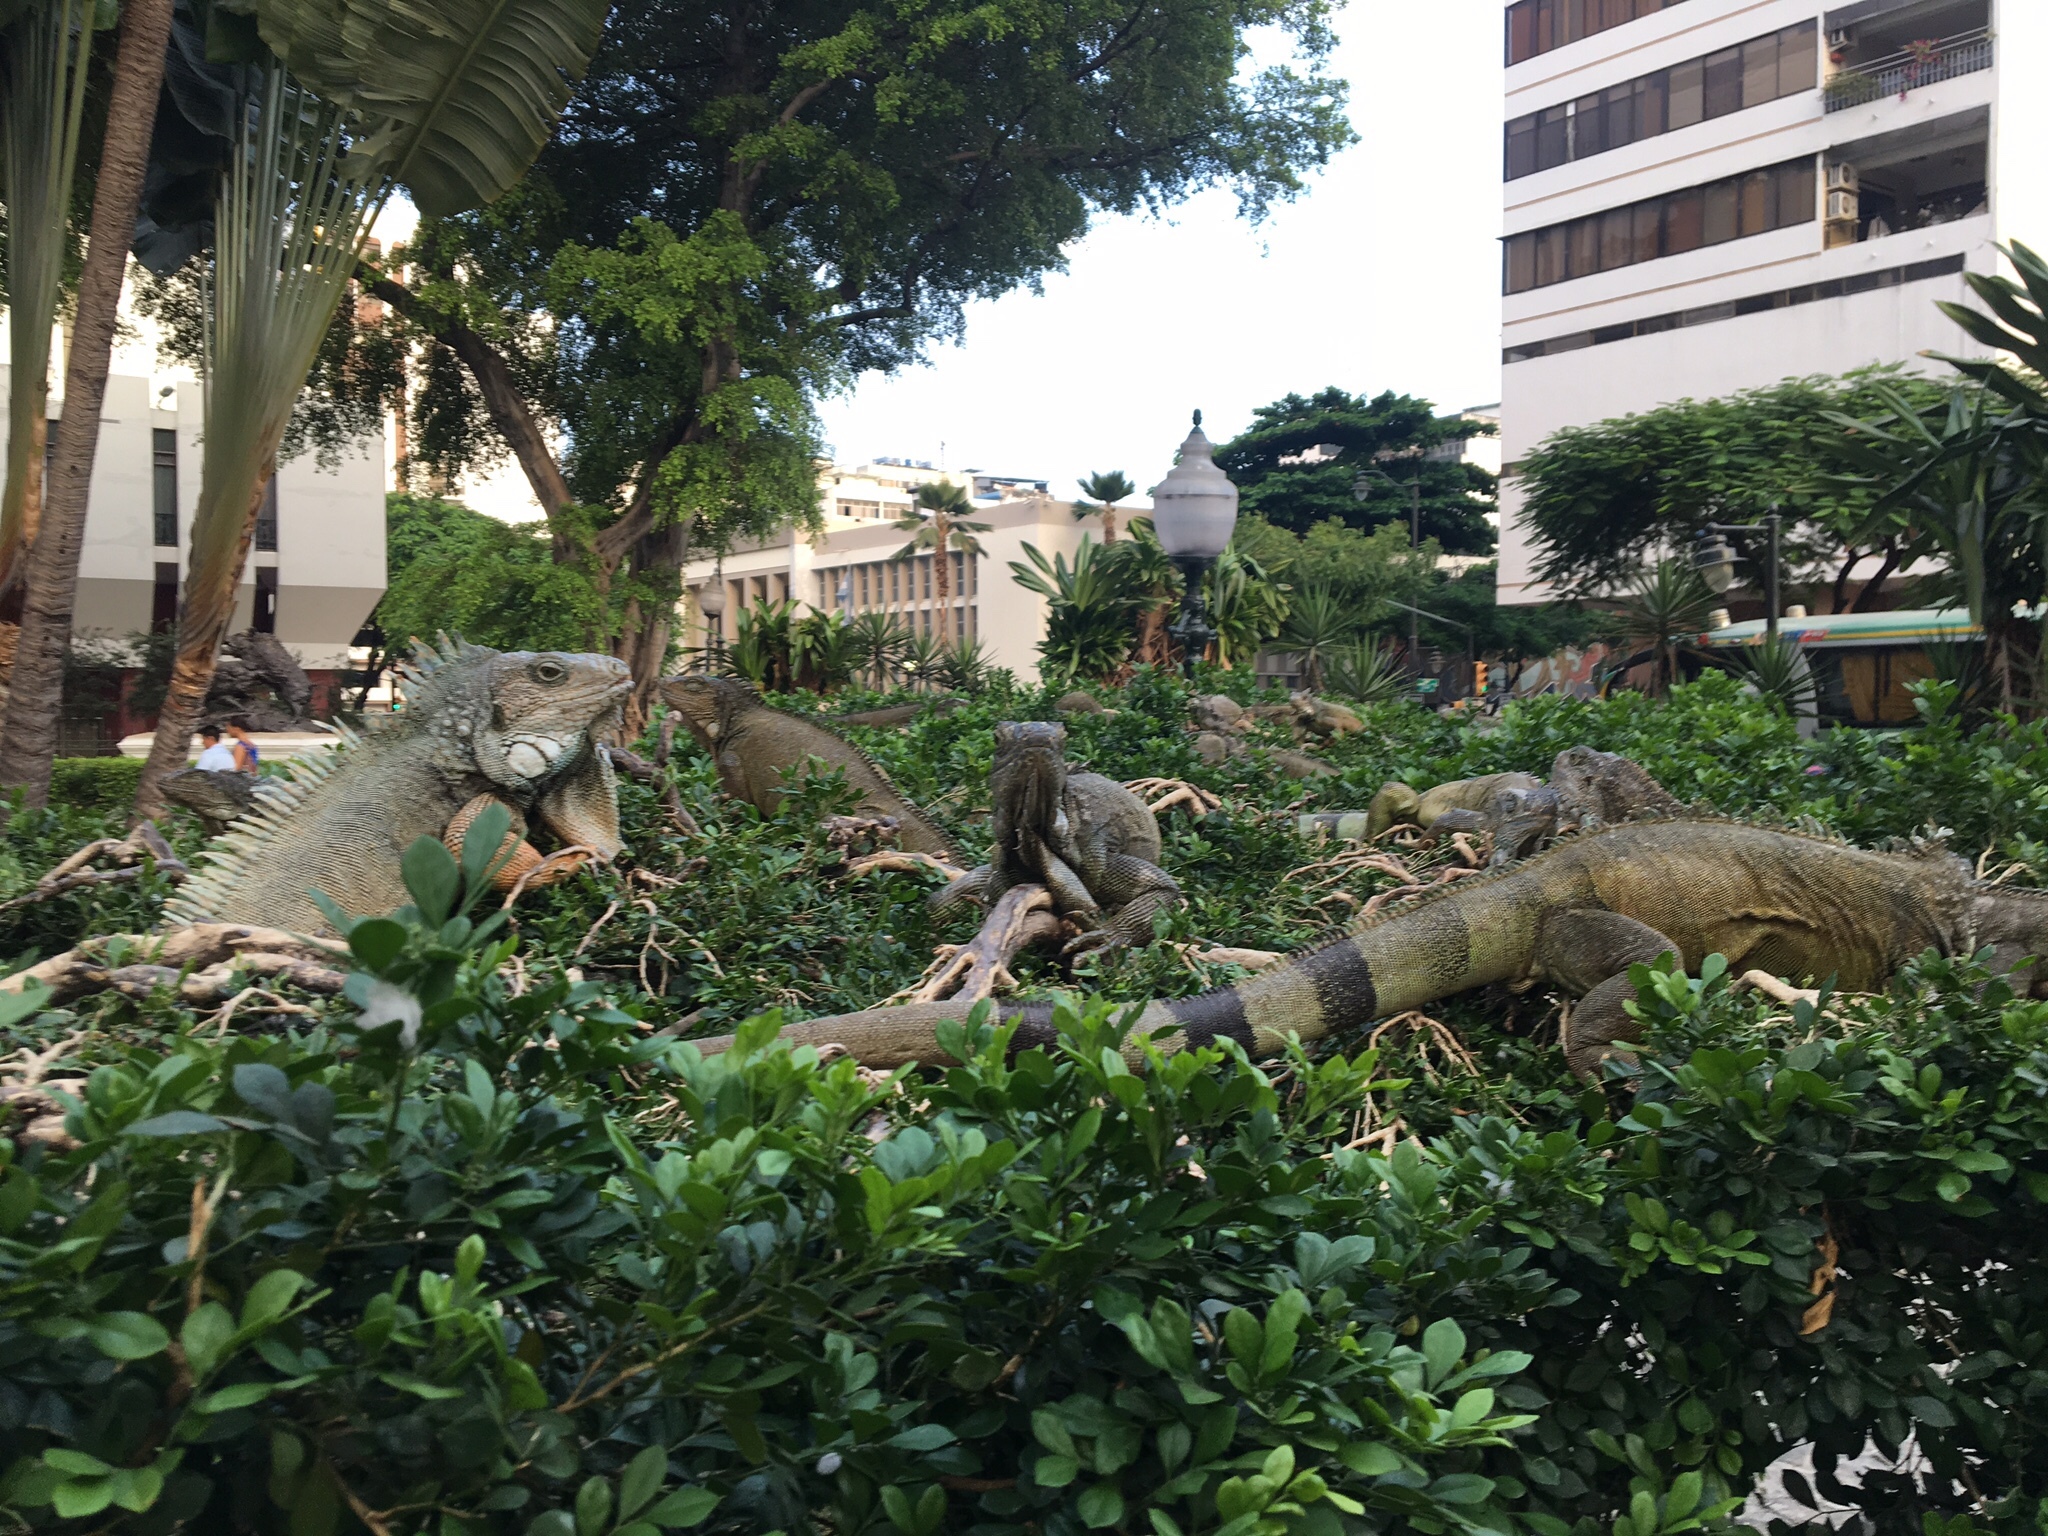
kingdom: Animalia
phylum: Chordata
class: Squamata
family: Iguanidae
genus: Iguana
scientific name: Iguana iguana
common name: Green iguana
